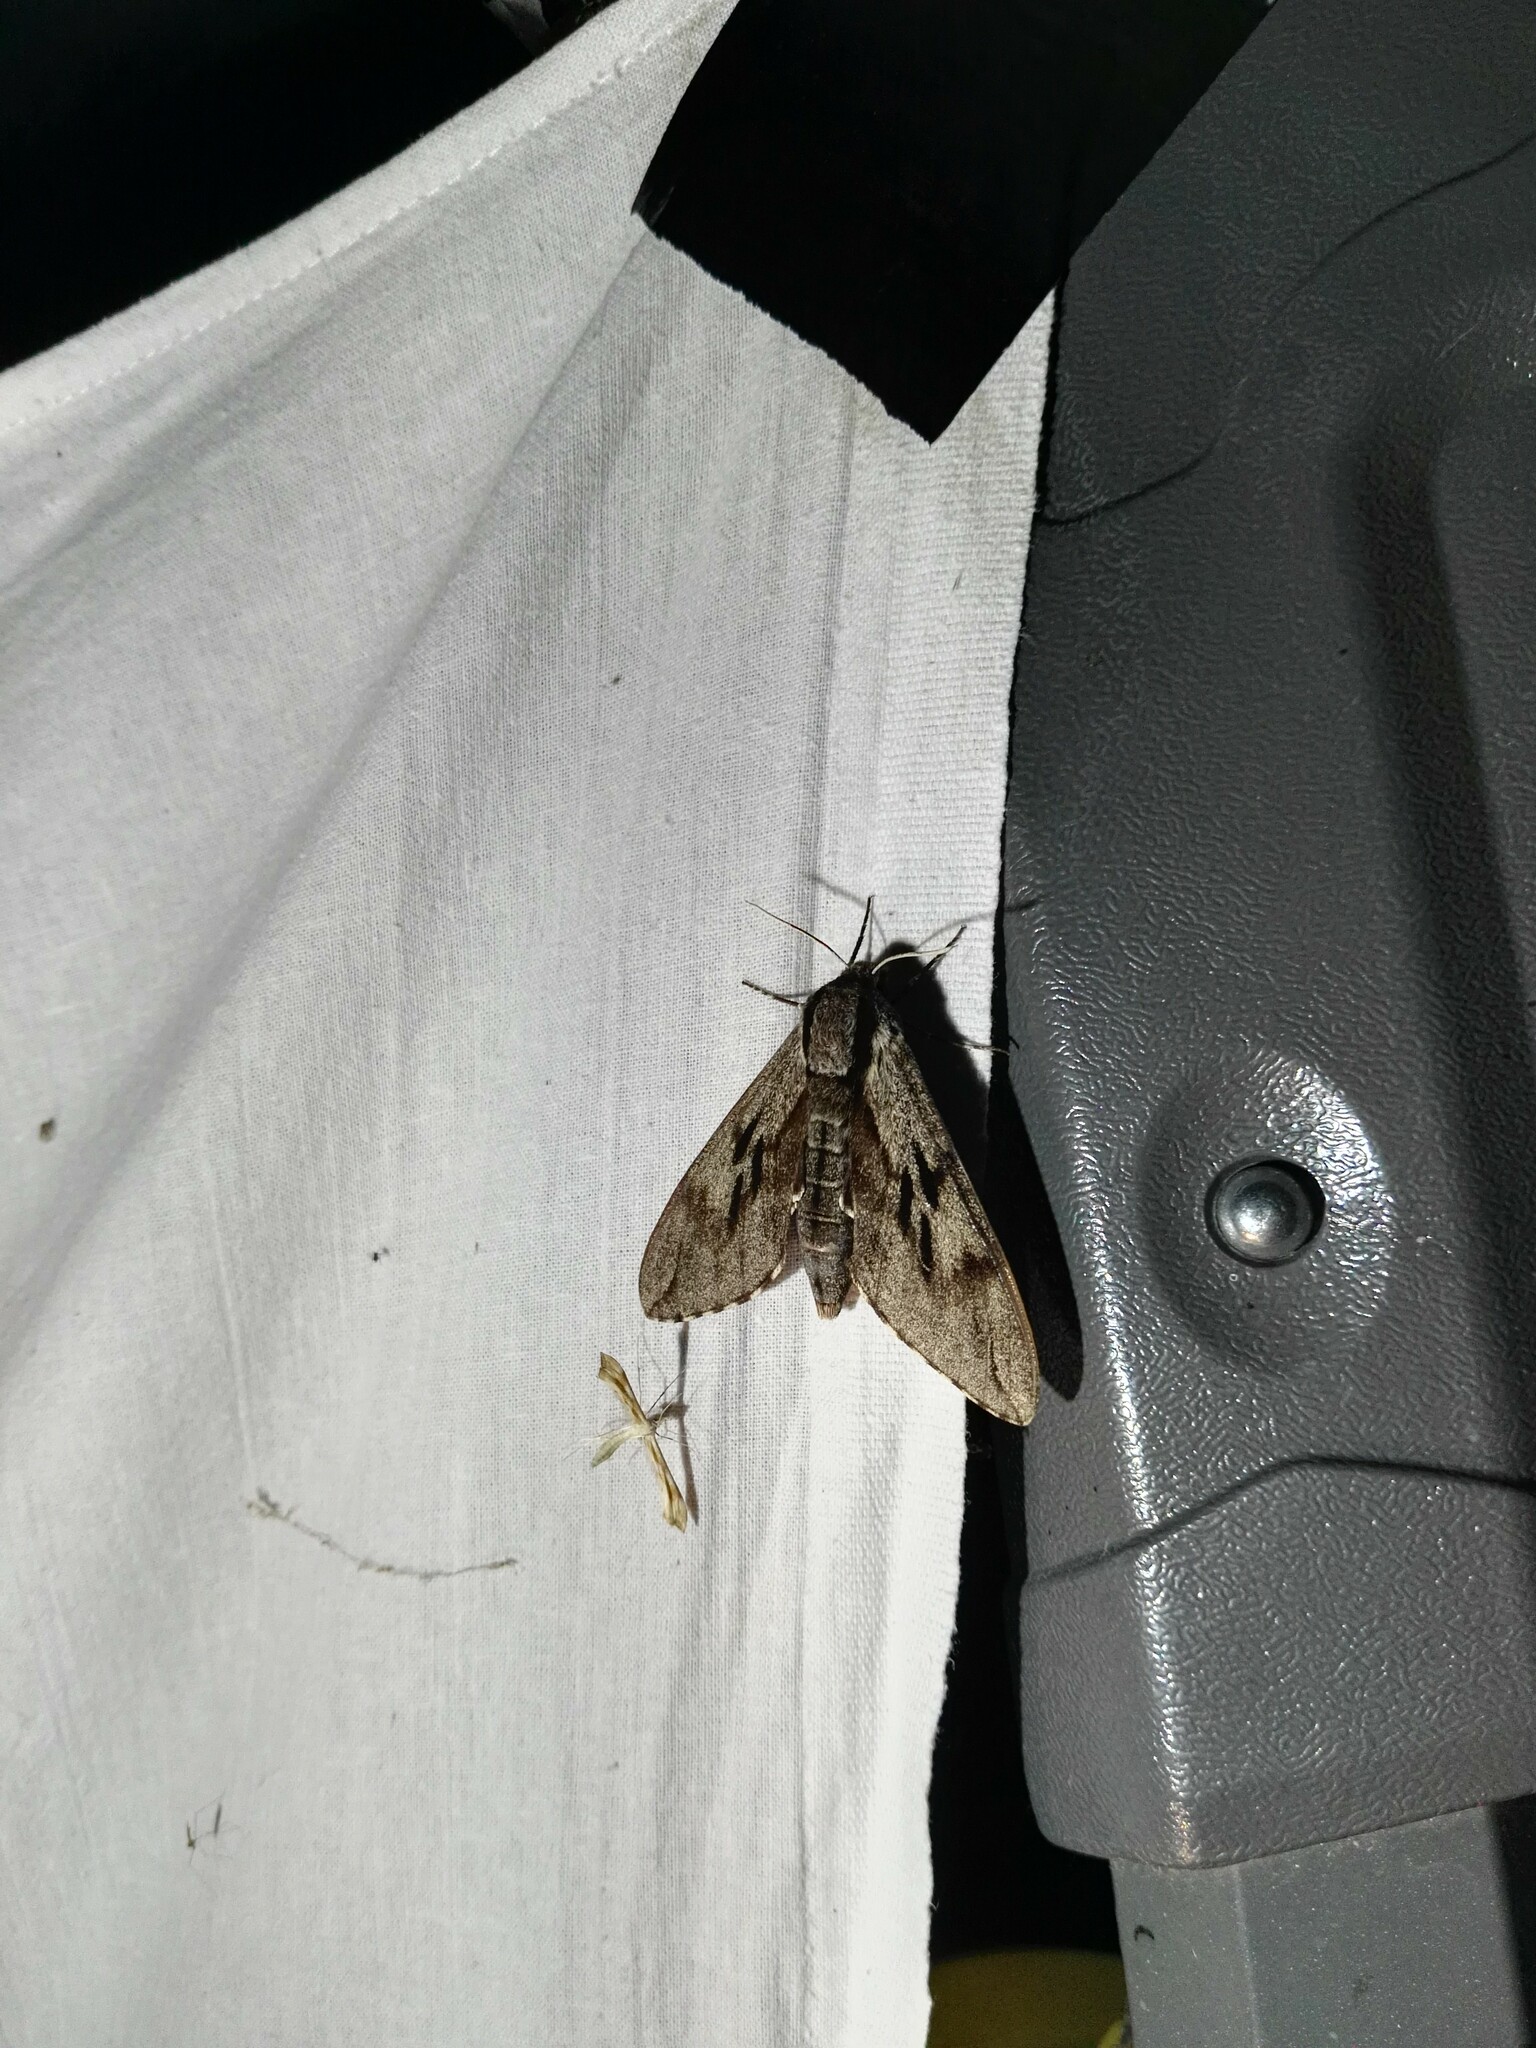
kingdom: Animalia
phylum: Arthropoda
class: Insecta
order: Lepidoptera
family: Sphingidae
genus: Sphinx
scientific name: Sphinx pinastri
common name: Pine hawk-moth
